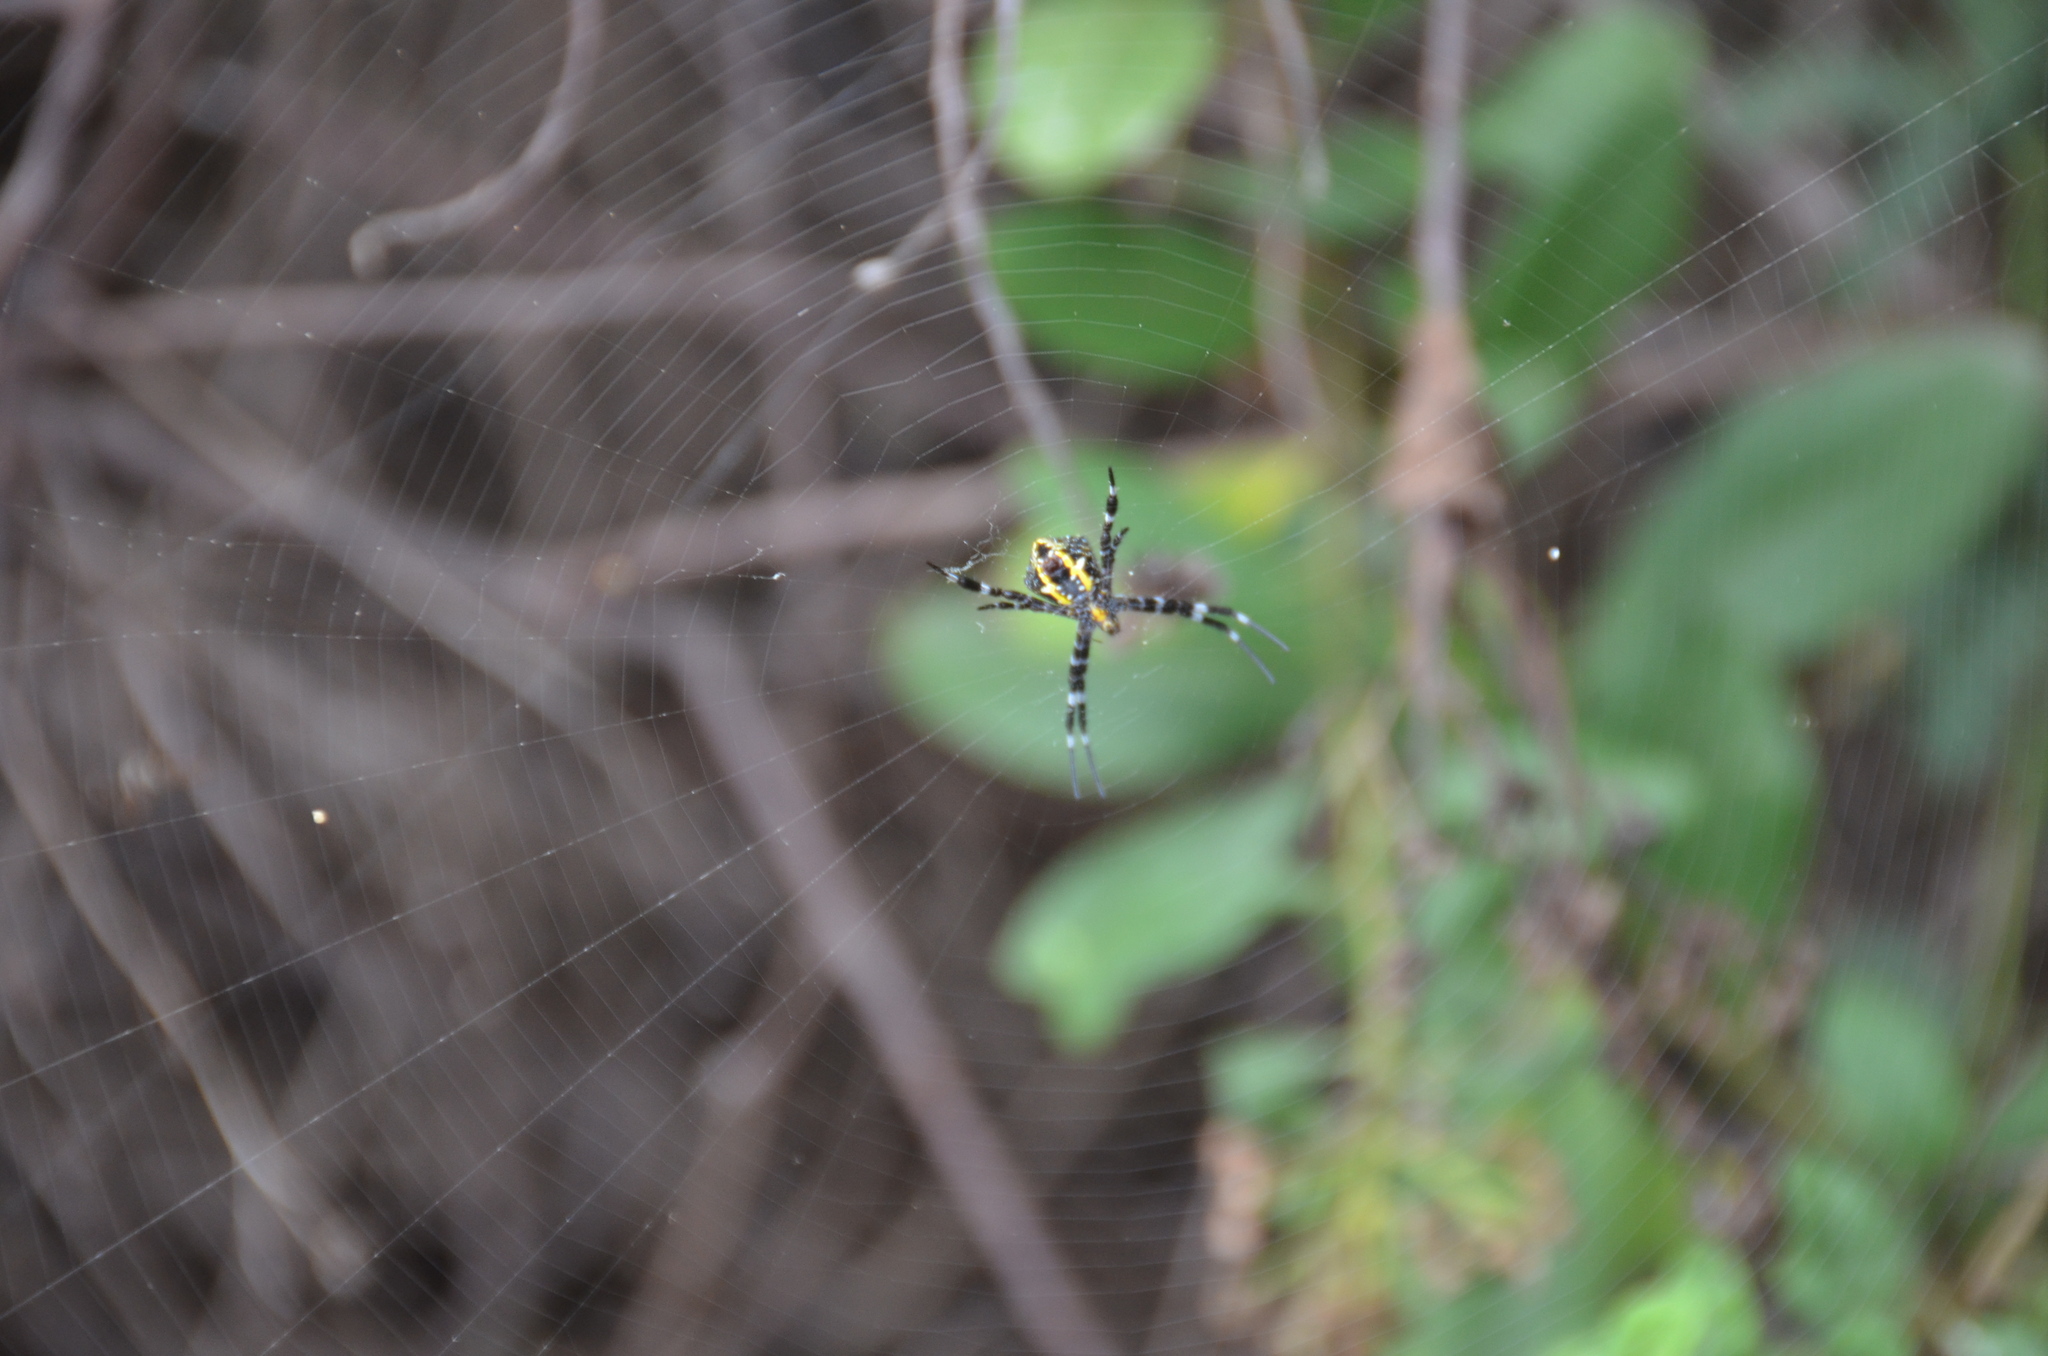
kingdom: Animalia
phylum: Arthropoda
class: Arachnida
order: Araneae
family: Araneidae
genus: Argiope
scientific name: Argiope appensa
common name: Garden spider
